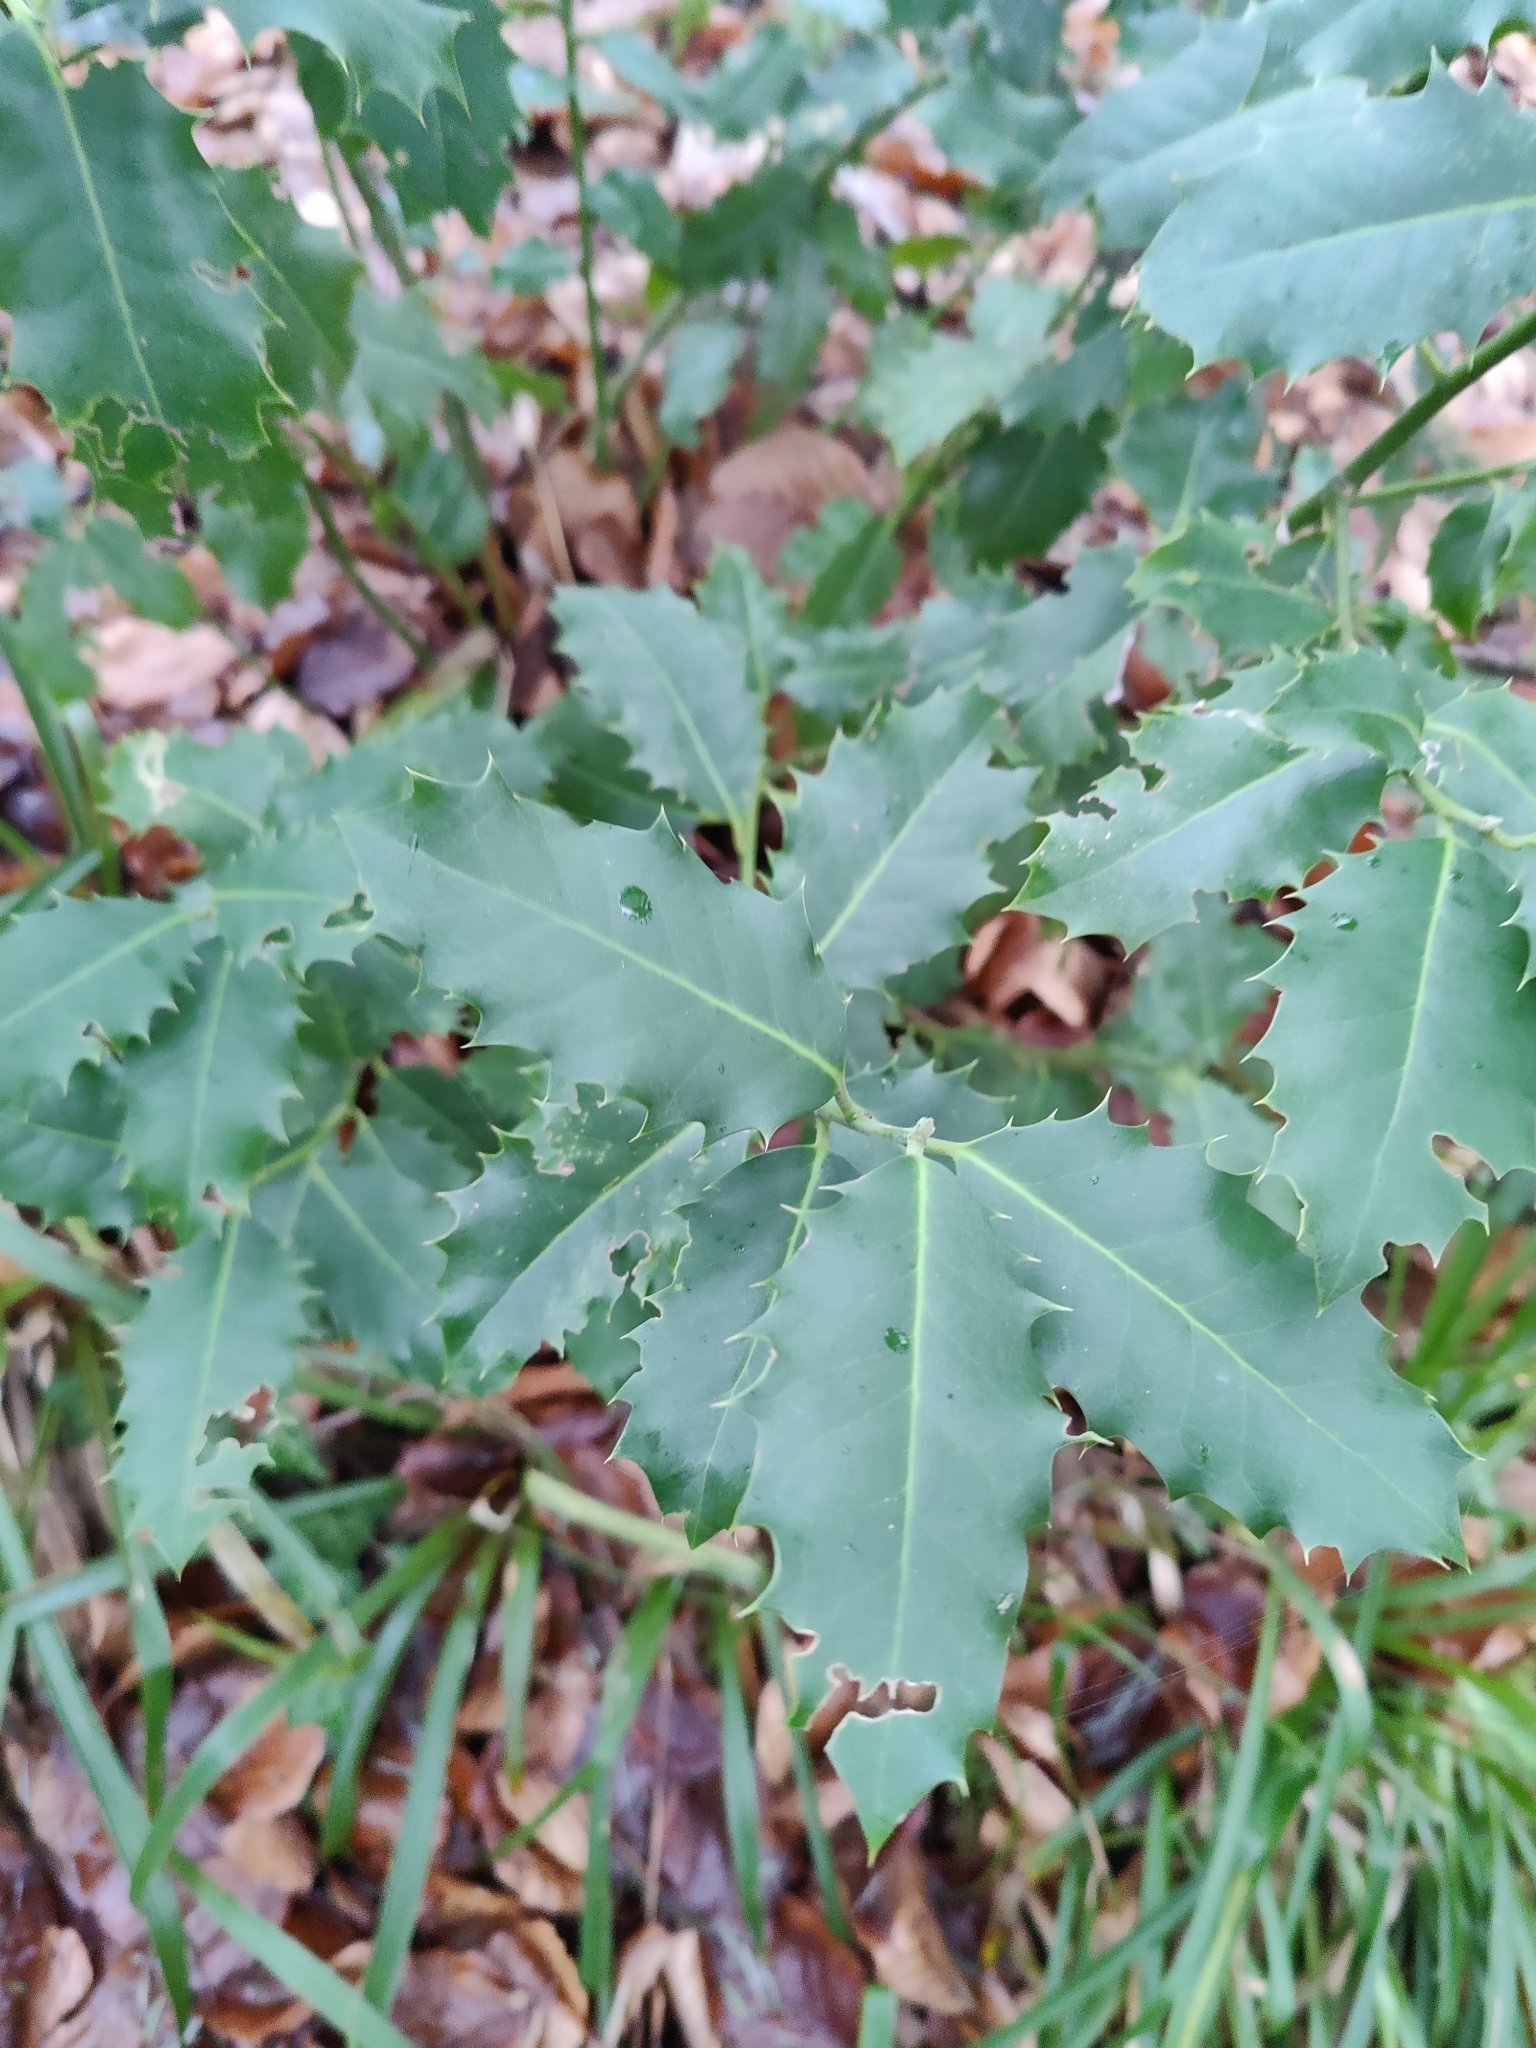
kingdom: Plantae
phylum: Tracheophyta
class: Magnoliopsida
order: Aquifoliales
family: Aquifoliaceae
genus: Ilex
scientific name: Ilex aquifolium
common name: English holly
